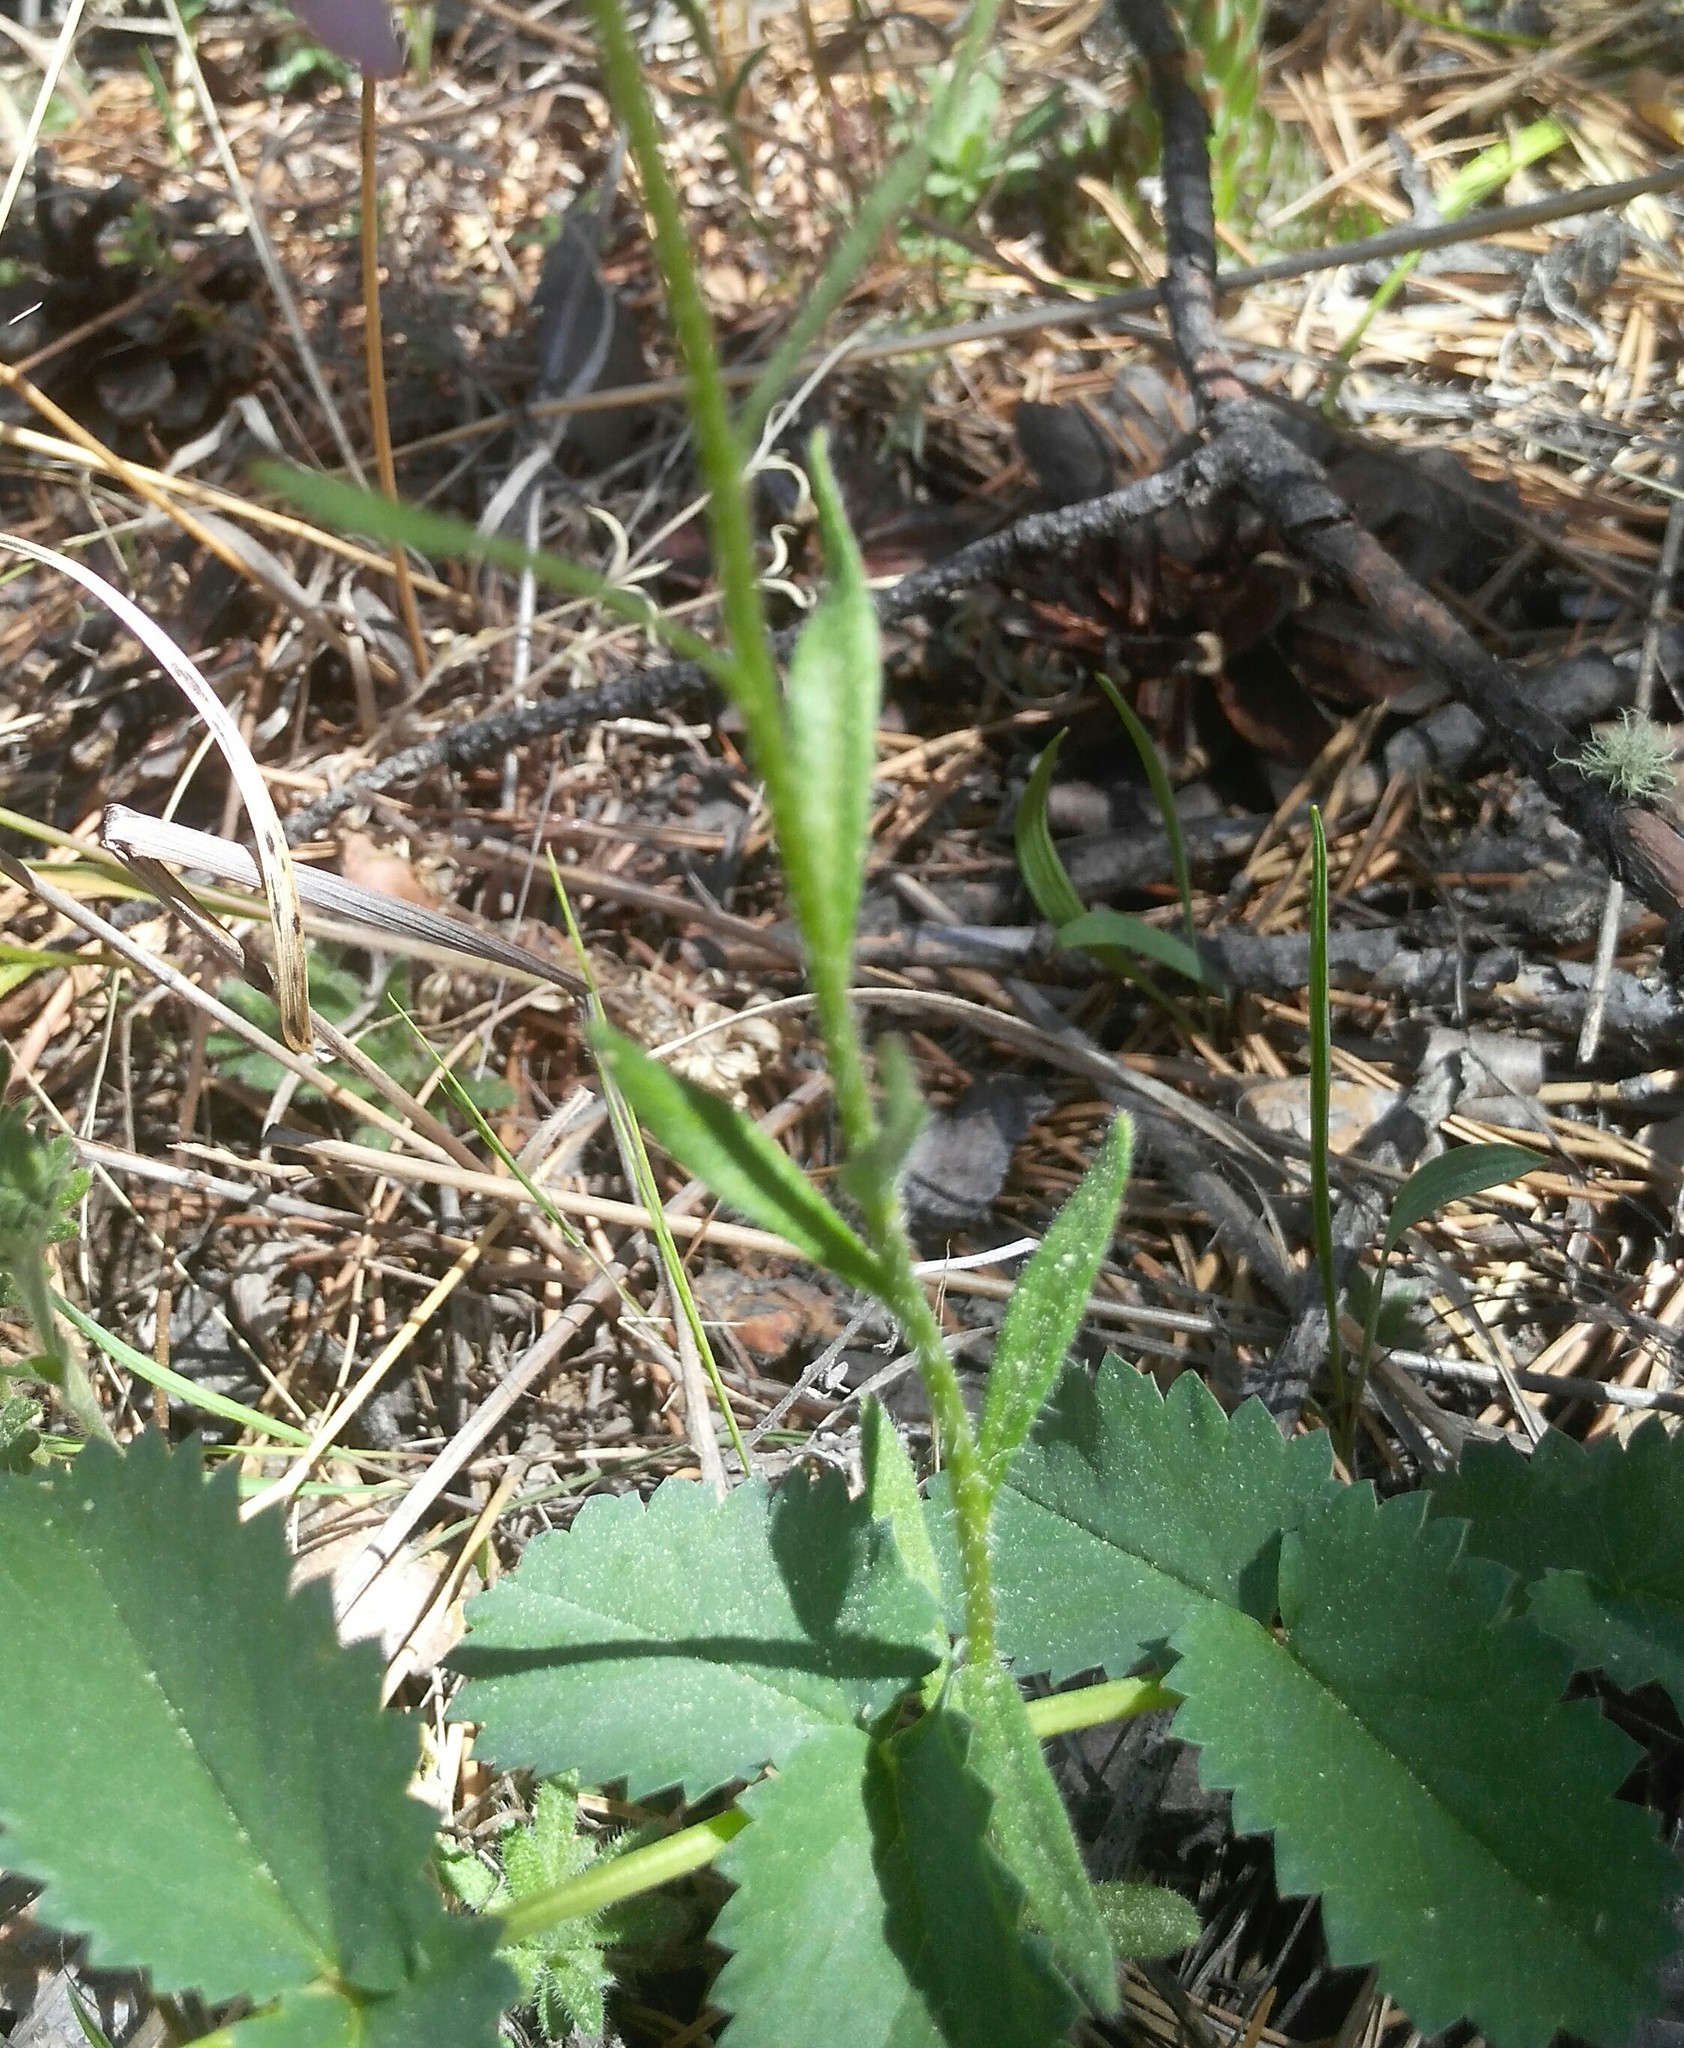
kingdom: Plantae
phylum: Tracheophyta
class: Magnoliopsida
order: Brassicales
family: Brassicaceae
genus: Clausia
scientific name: Clausia aprica
